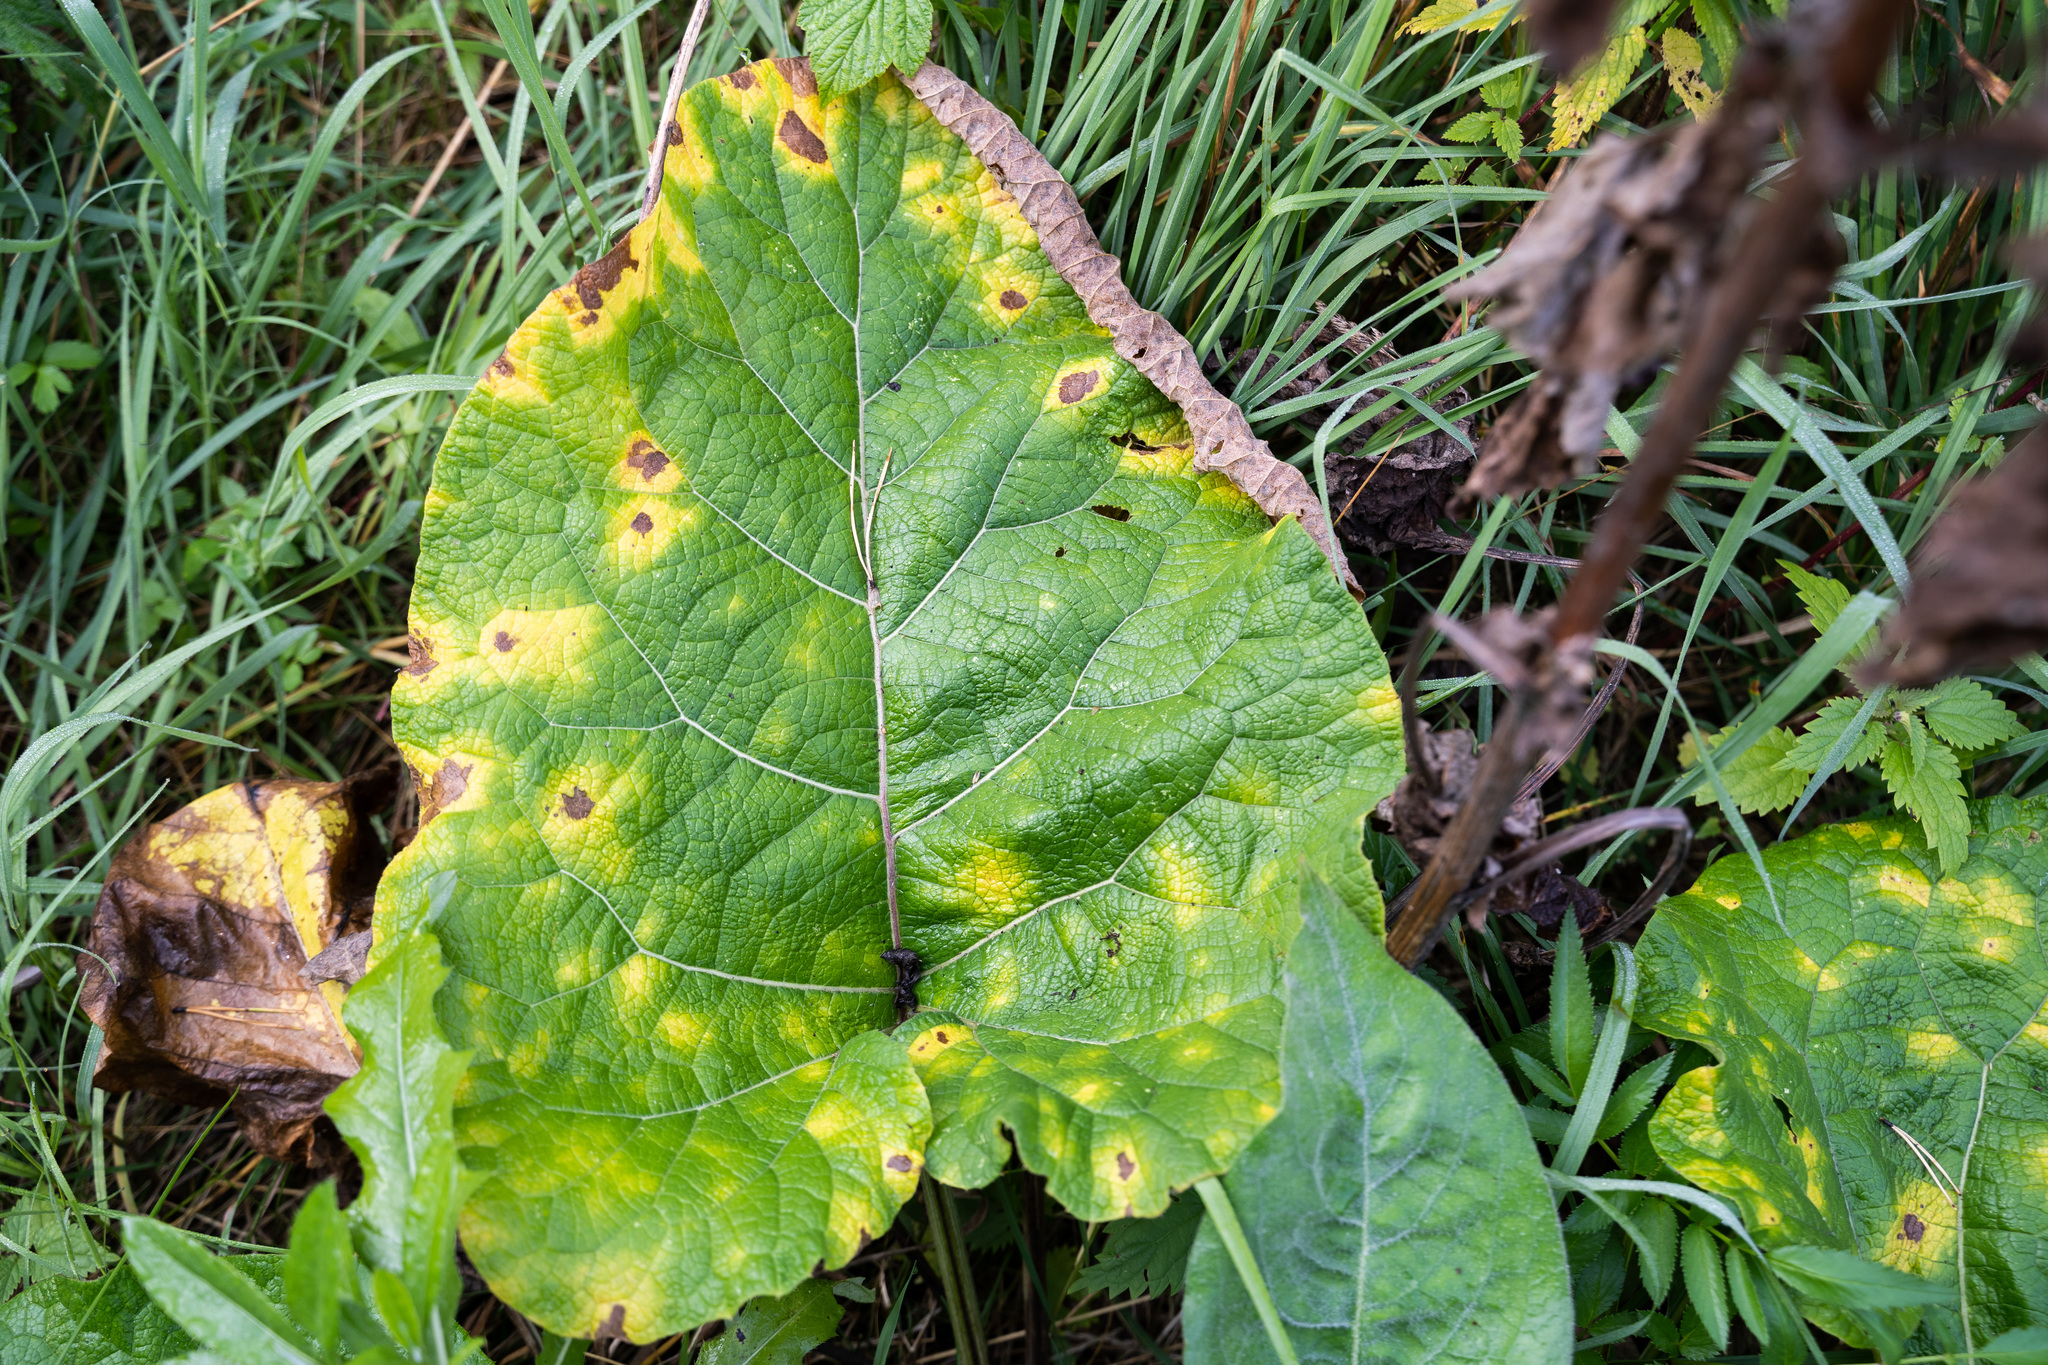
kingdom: Plantae
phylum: Tracheophyta
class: Magnoliopsida
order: Asterales
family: Asteraceae
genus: Arctium
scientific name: Arctium tomentosum
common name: Woolly burdock
